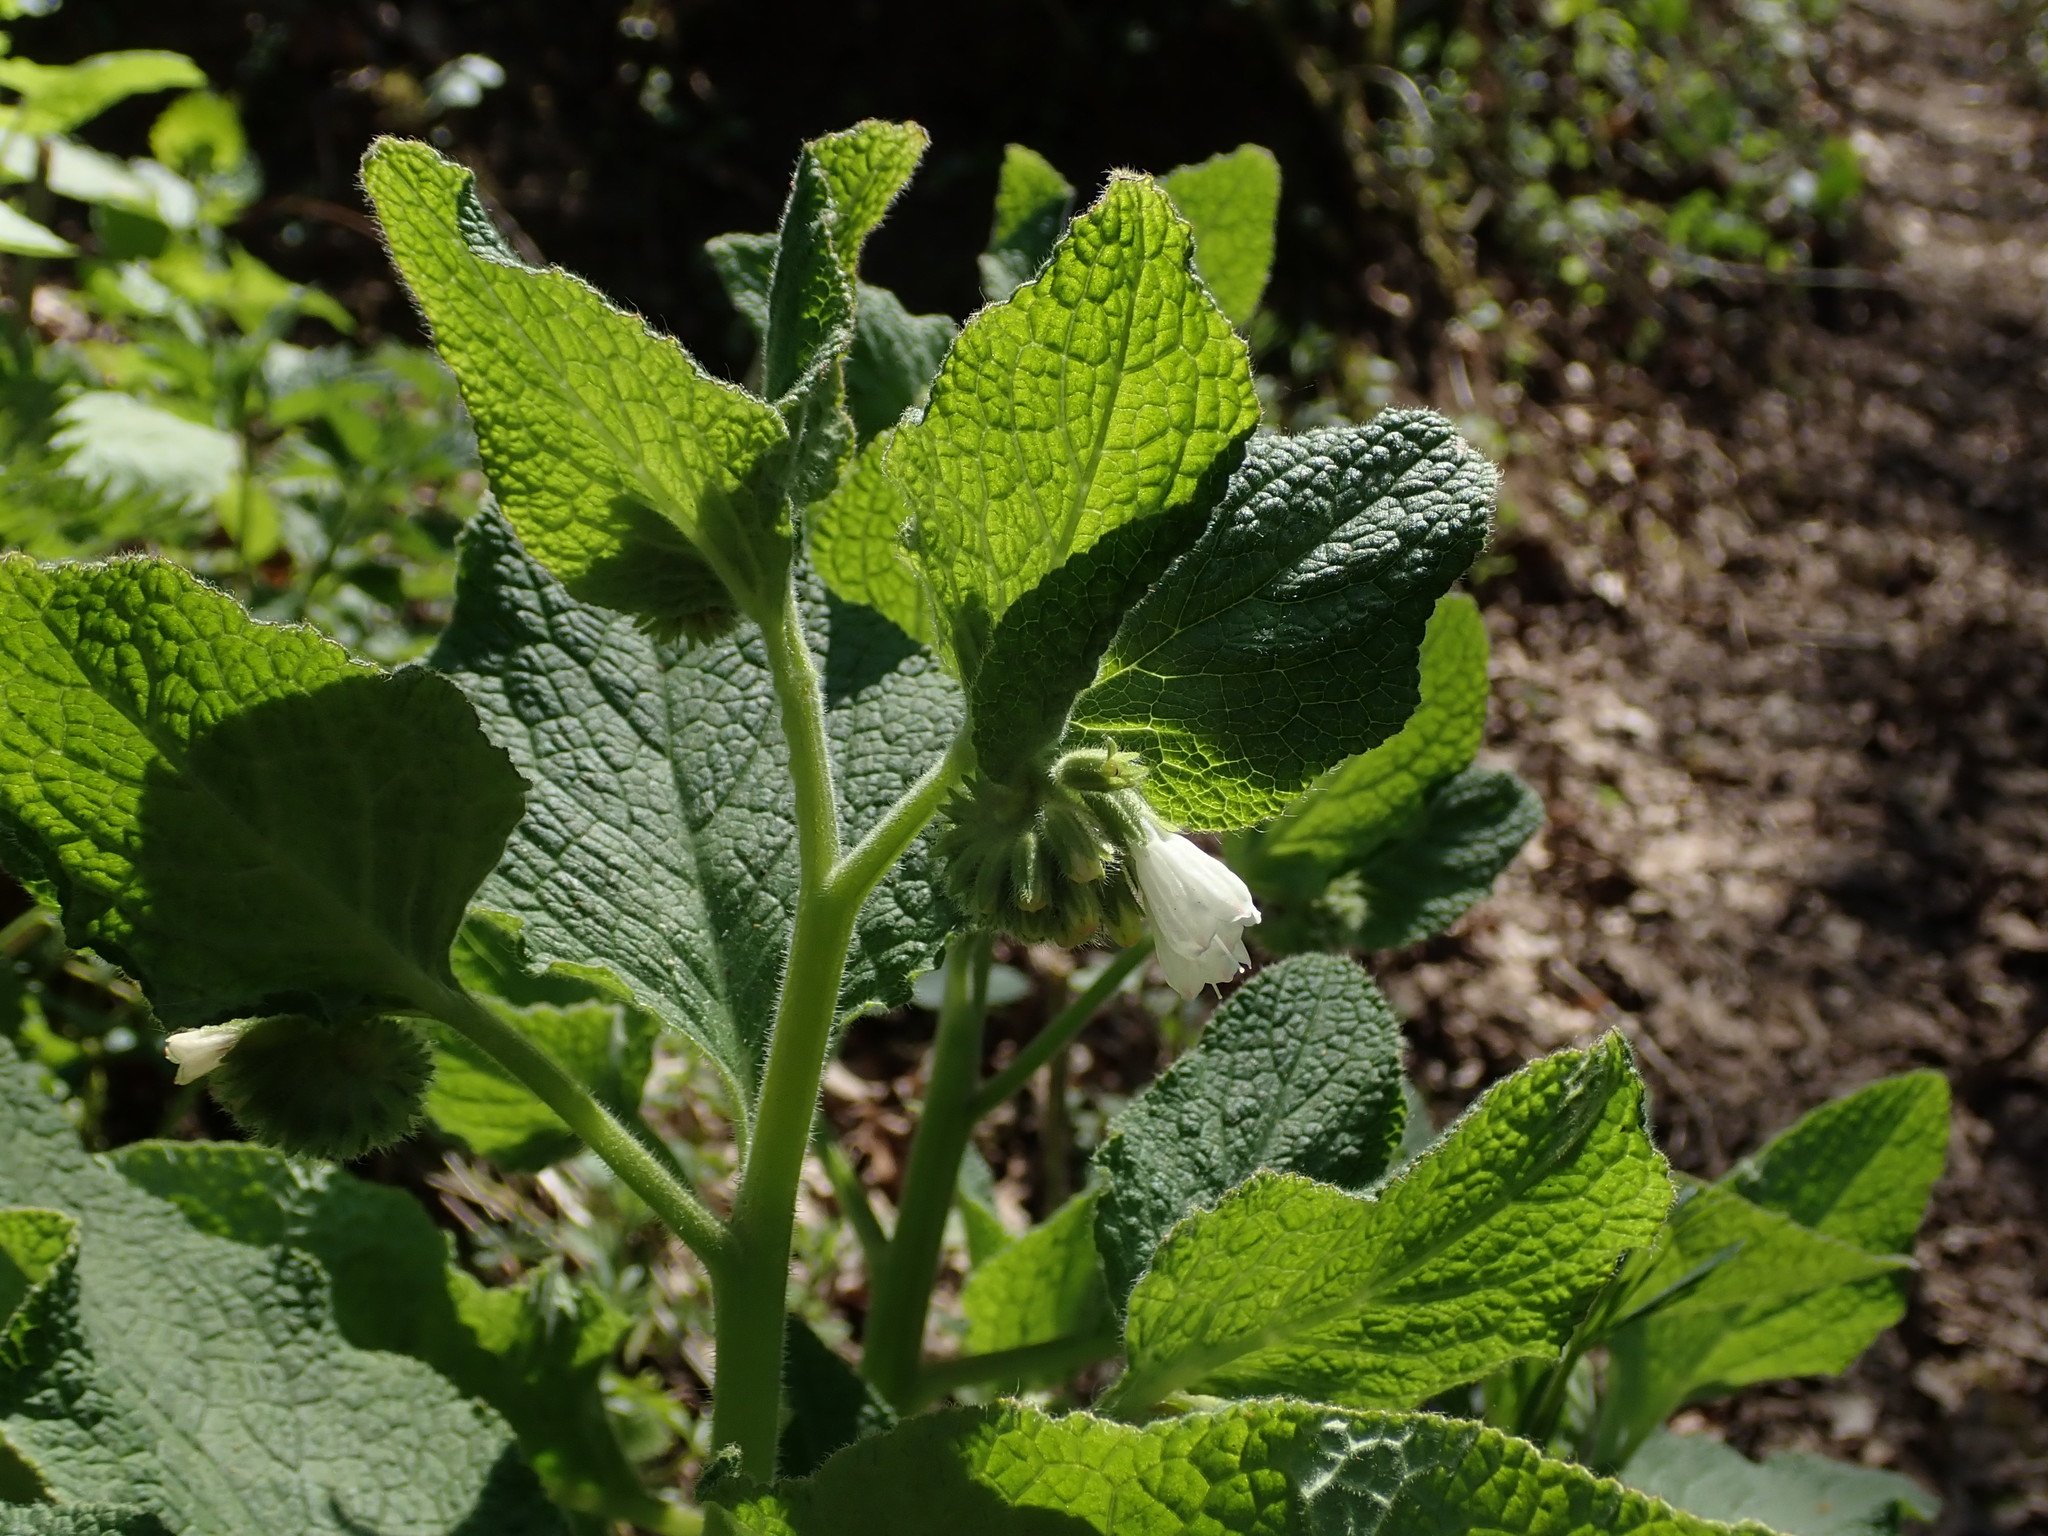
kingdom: Plantae
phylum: Tracheophyta
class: Magnoliopsida
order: Boraginales
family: Boraginaceae
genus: Symphytum
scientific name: Symphytum orientale
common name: White comfrey
